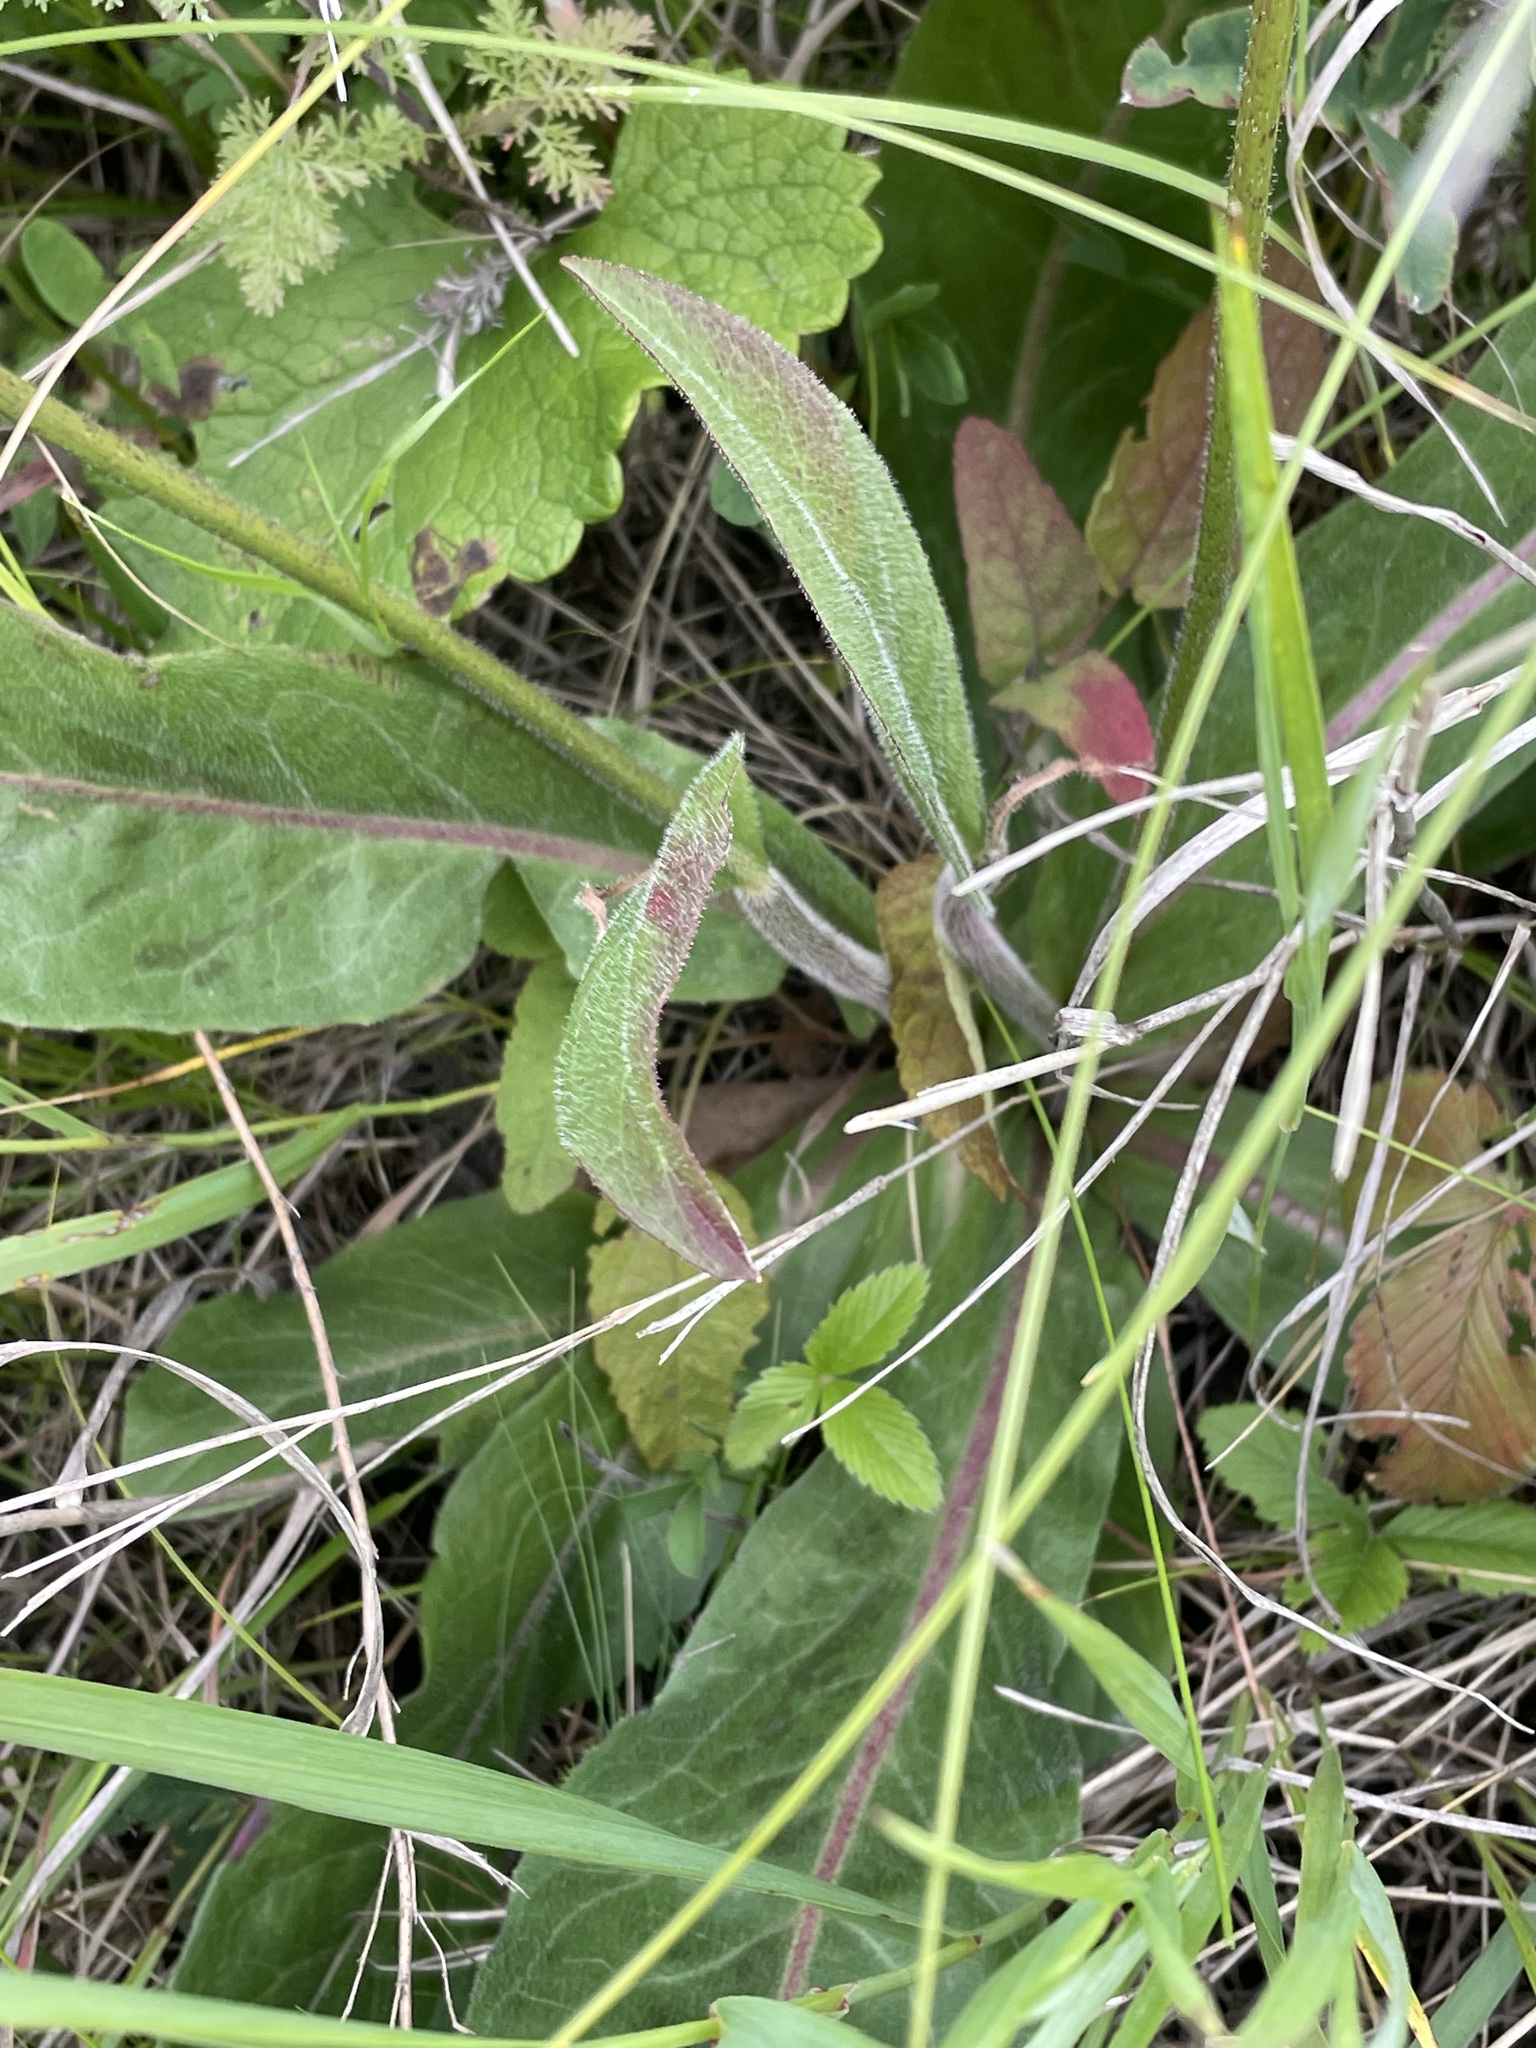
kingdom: Plantae
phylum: Tracheophyta
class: Magnoliopsida
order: Asterales
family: Asteraceae
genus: Trommsdorffia
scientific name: Trommsdorffia maculata
